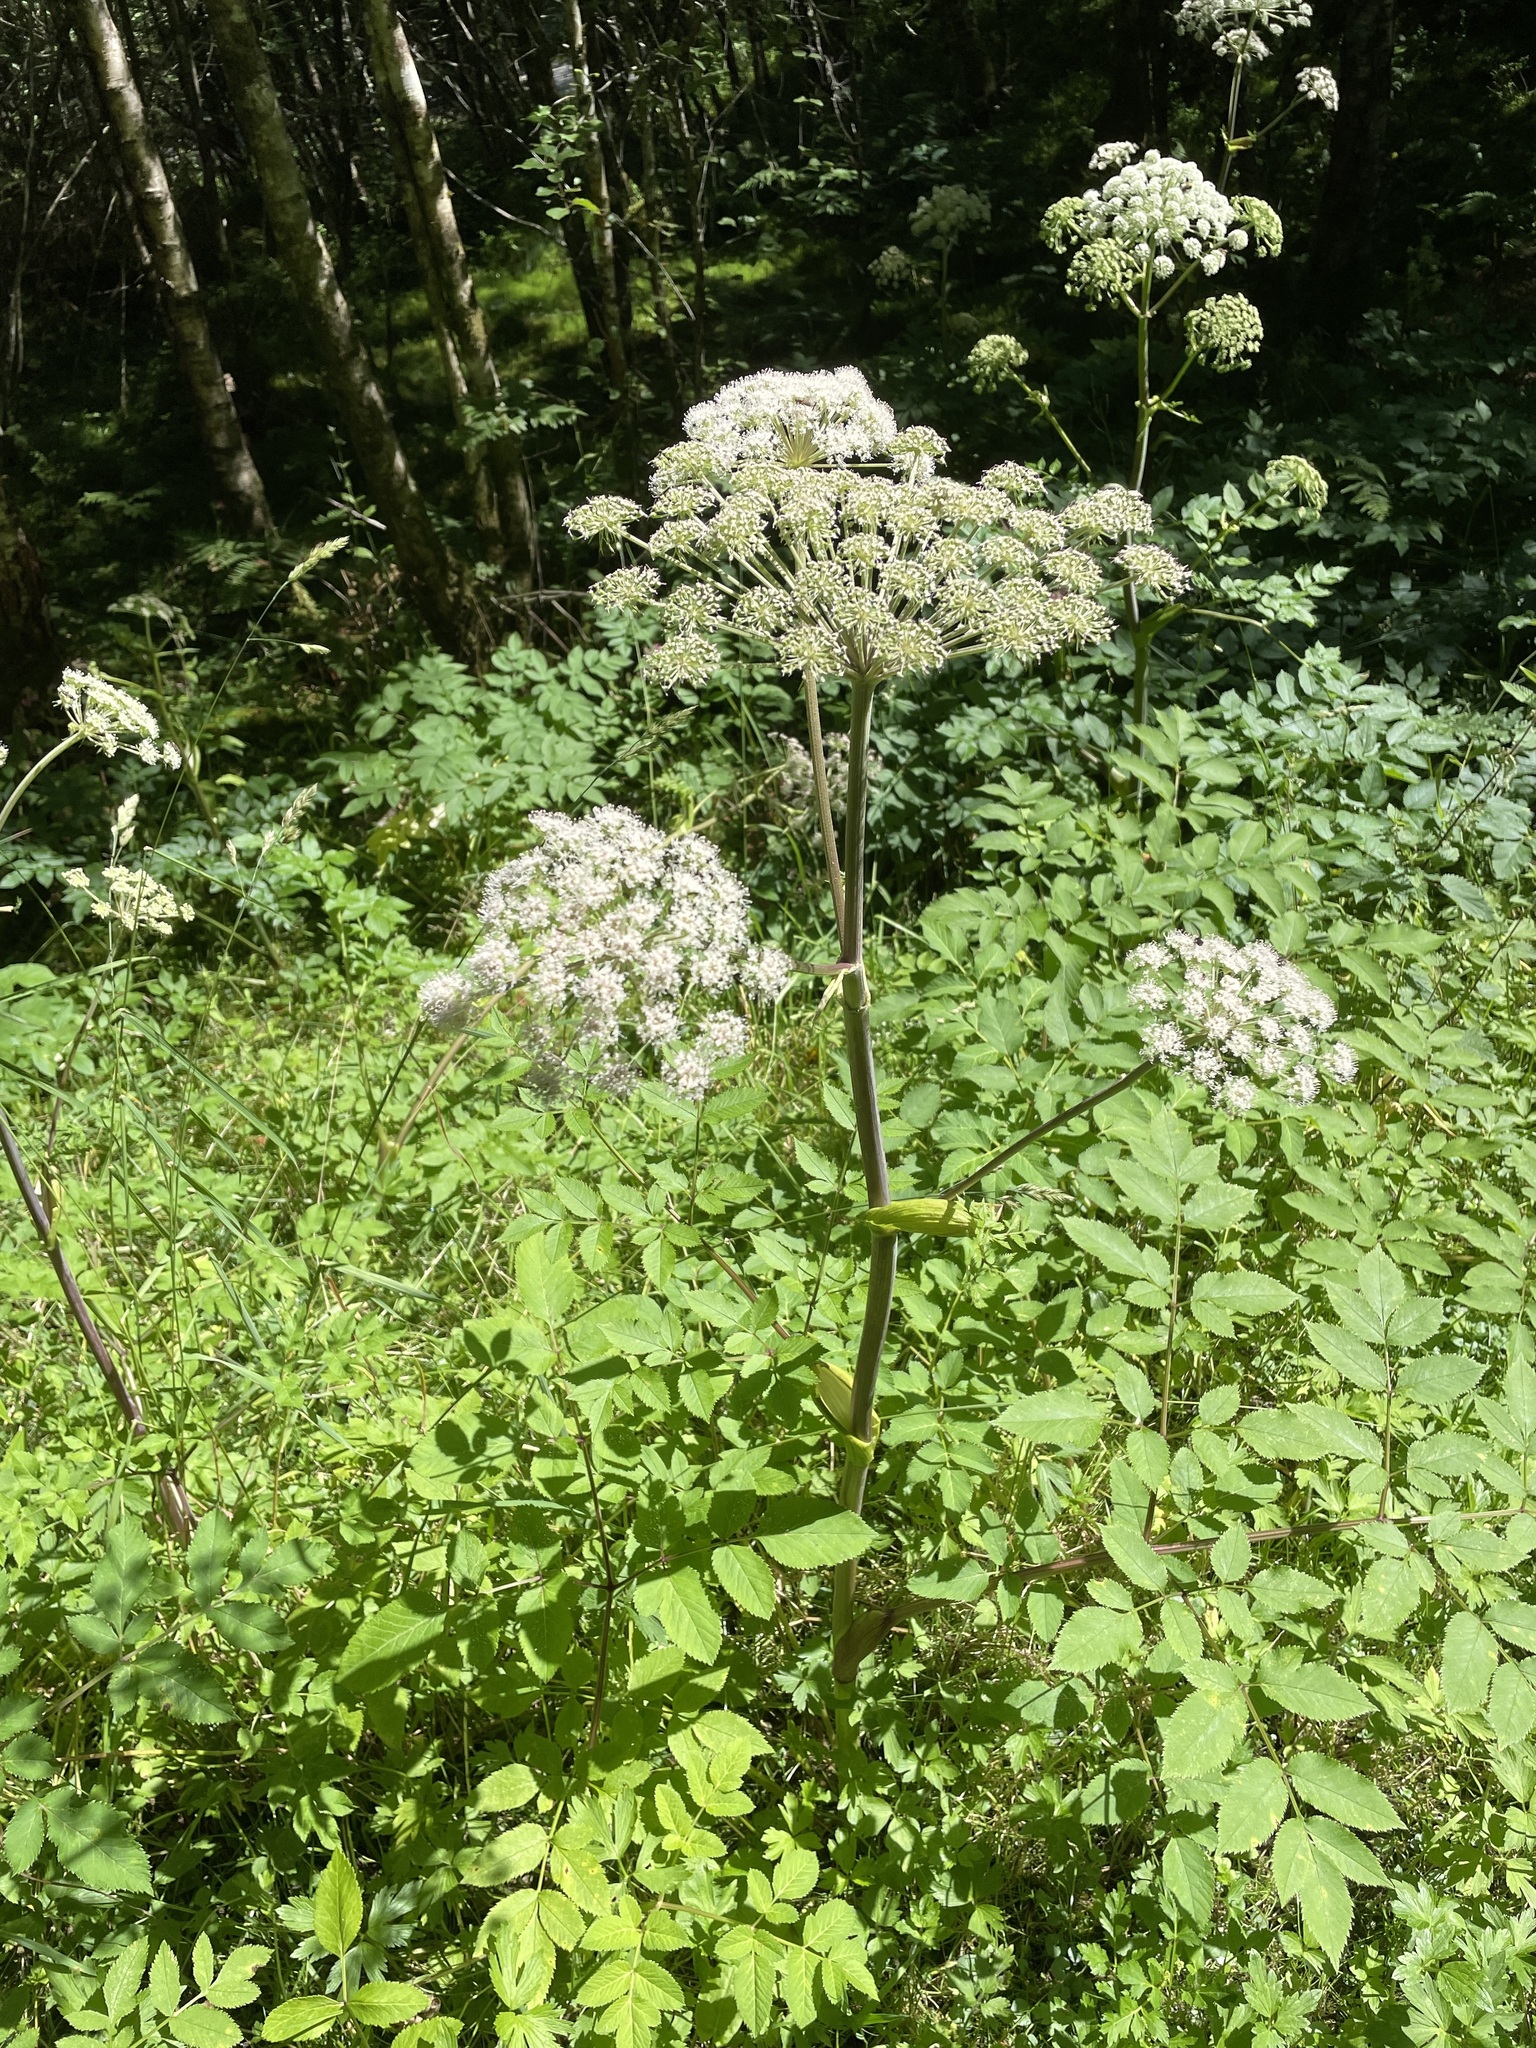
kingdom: Plantae
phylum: Tracheophyta
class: Magnoliopsida
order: Apiales
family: Apiaceae
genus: Angelica
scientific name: Angelica sylvestris
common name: Wild angelica
